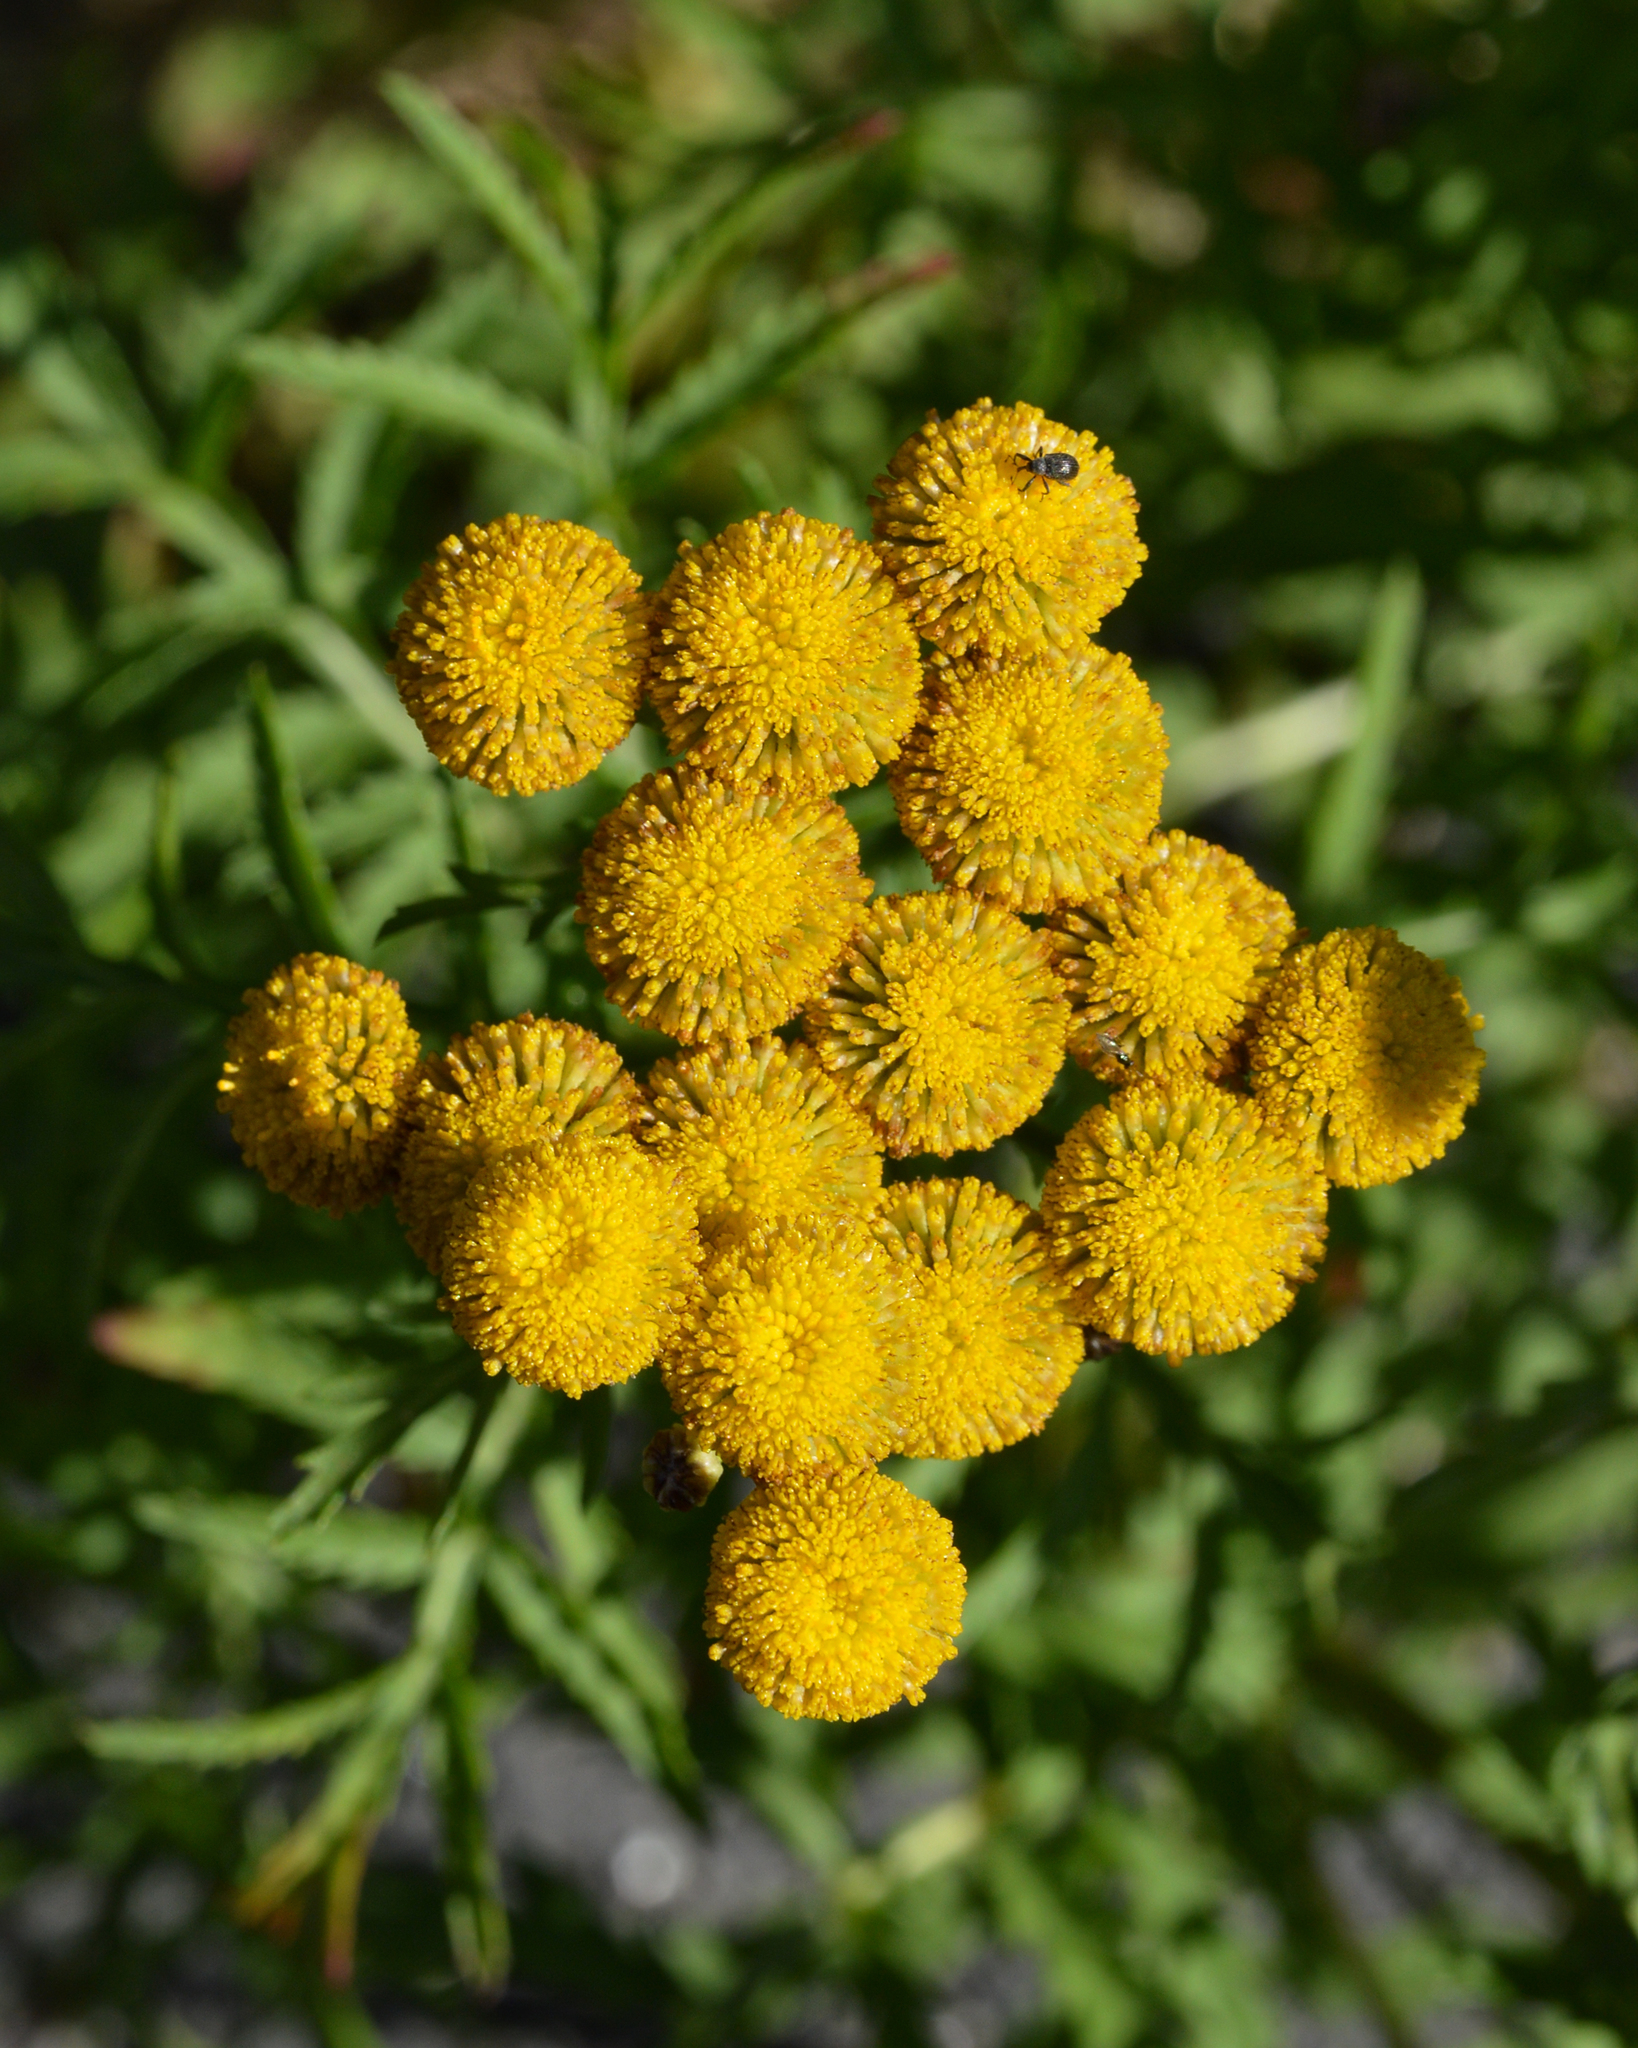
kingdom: Plantae
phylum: Tracheophyta
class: Magnoliopsida
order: Asterales
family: Asteraceae
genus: Tanacetum
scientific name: Tanacetum vulgare
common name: Common tansy
